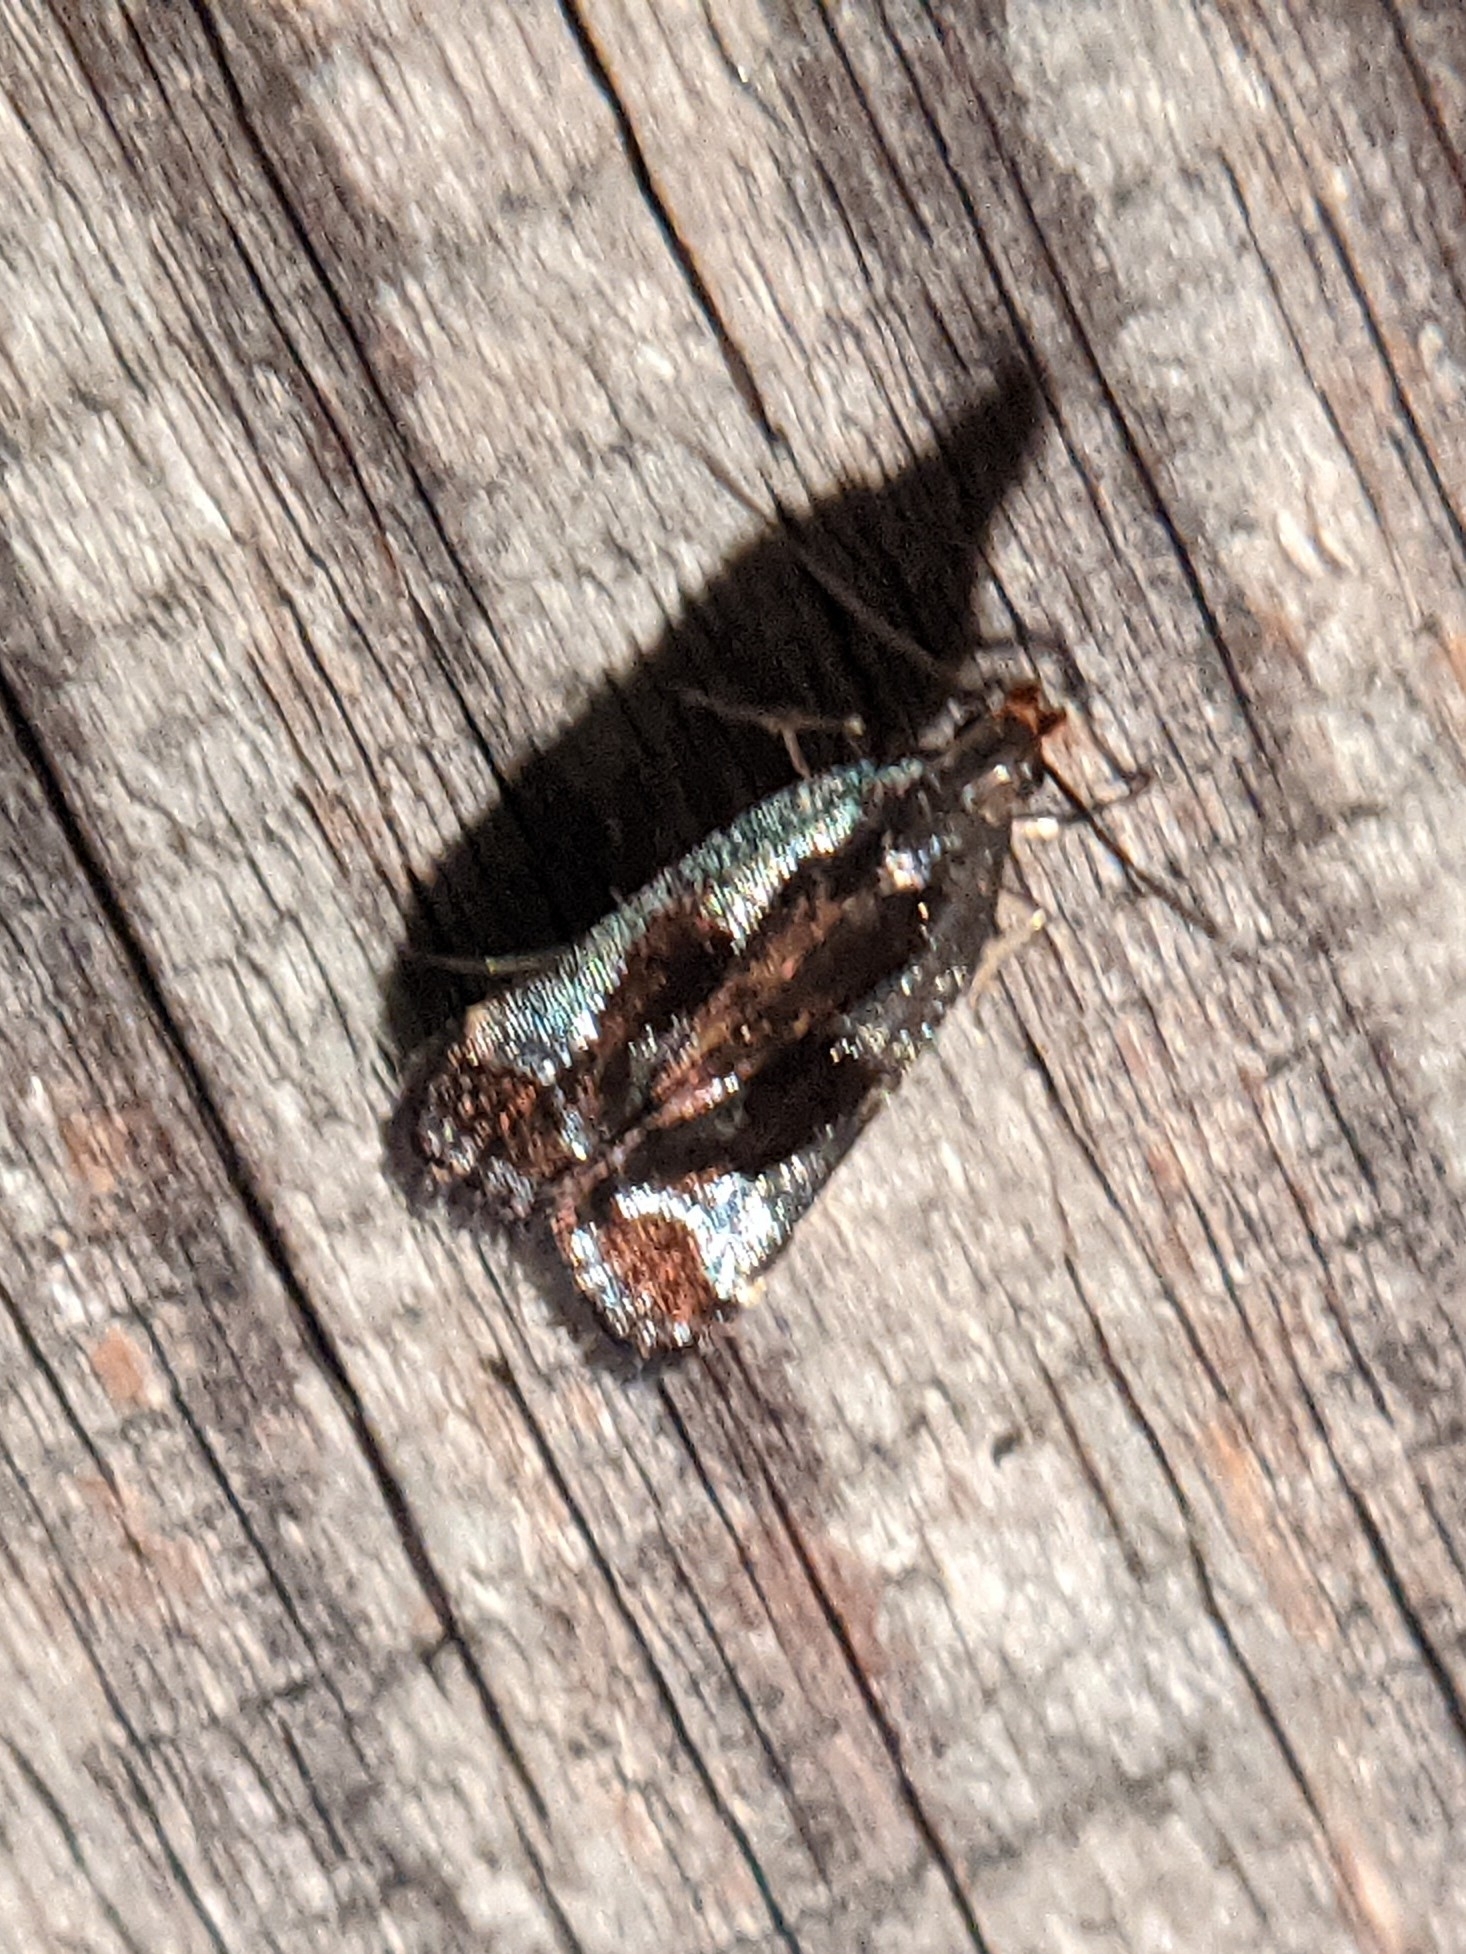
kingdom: Animalia
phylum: Arthropoda
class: Insecta
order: Lepidoptera
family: Gelechiidae
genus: Dichomeris
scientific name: Dichomeris ochripalpella
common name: Shining dichomeris moth
